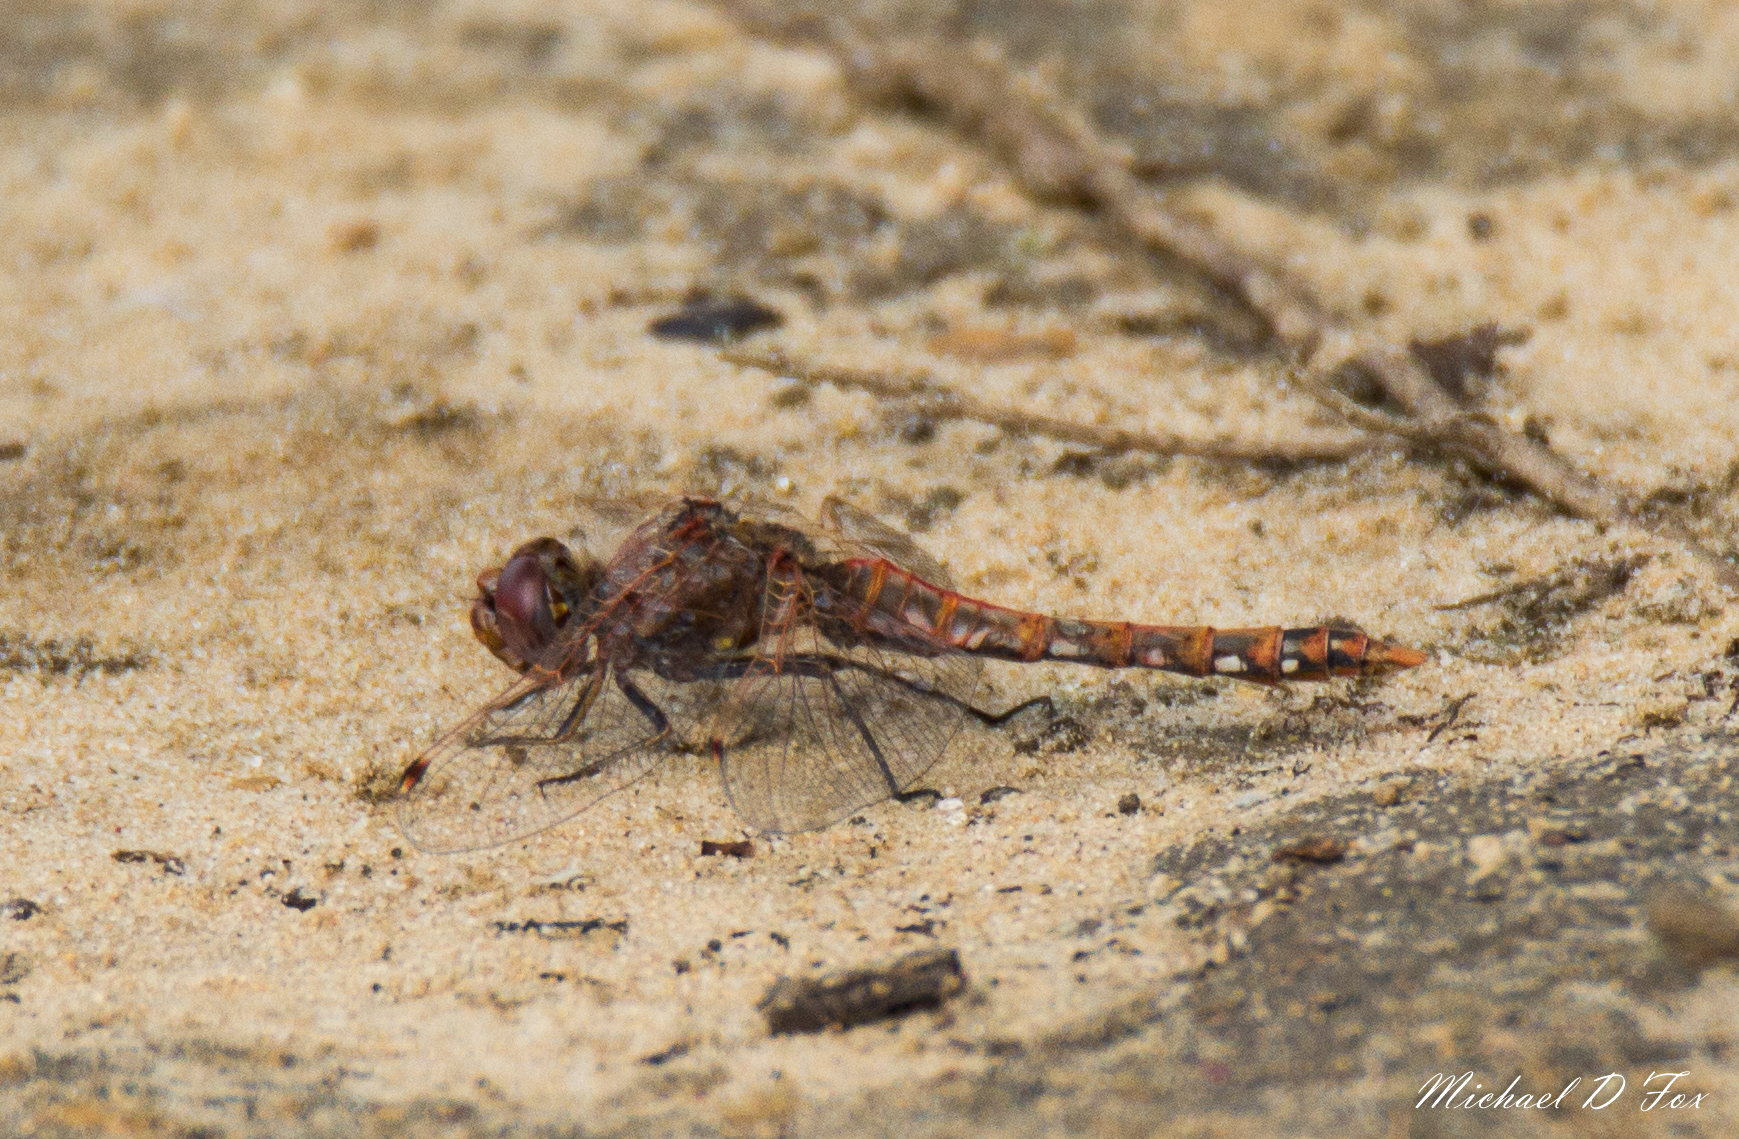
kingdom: Animalia
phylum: Arthropoda
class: Insecta
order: Odonata
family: Libellulidae
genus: Sympetrum
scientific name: Sympetrum corruptum
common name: Variegated meadowhawk
